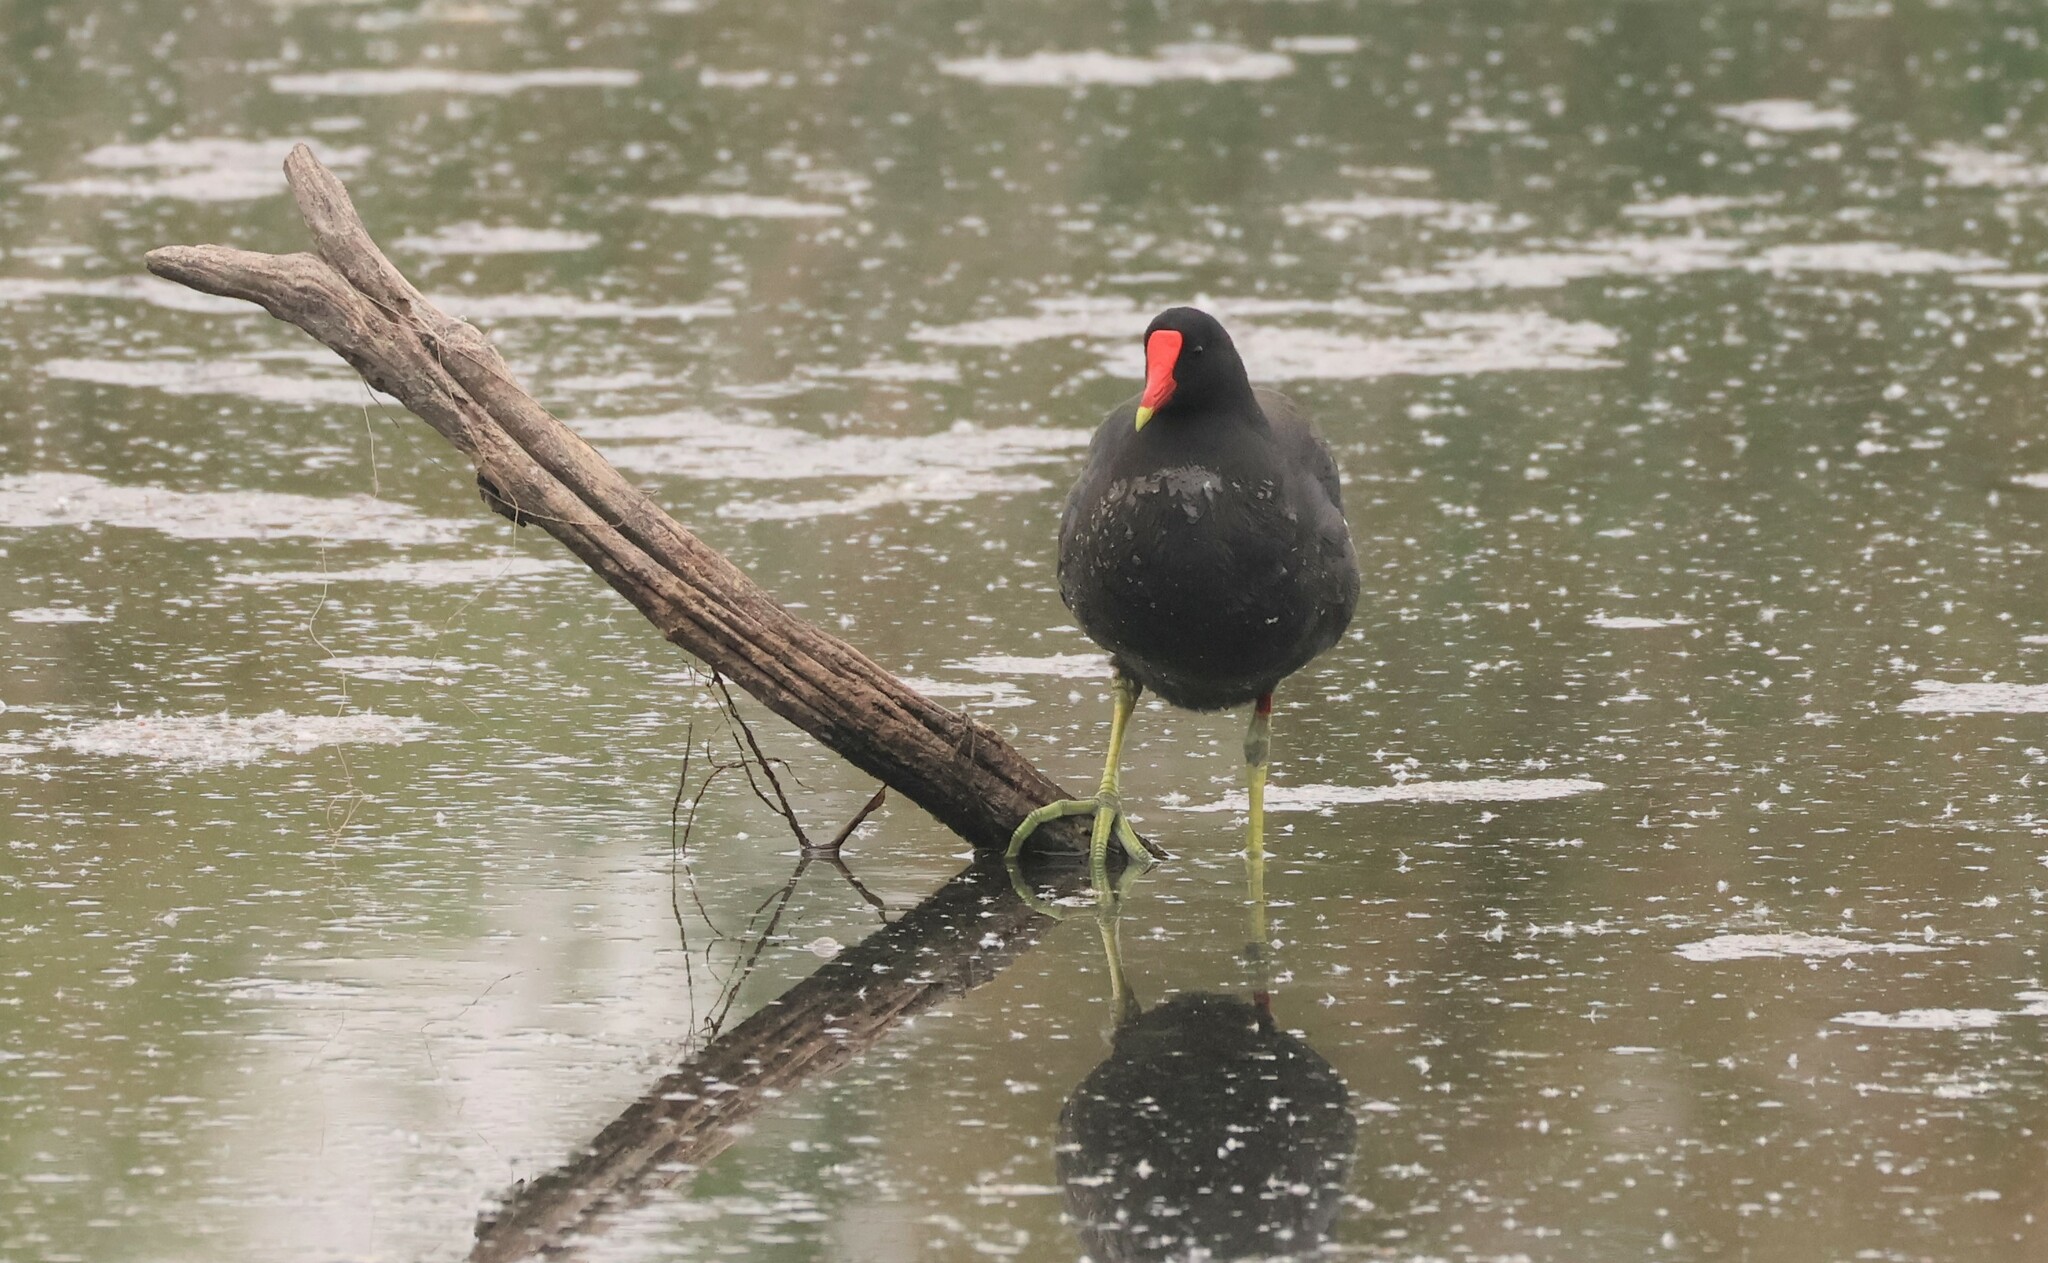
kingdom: Animalia
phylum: Chordata
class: Aves
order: Gruiformes
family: Rallidae
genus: Gallinula
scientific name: Gallinula chloropus
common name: Common moorhen
